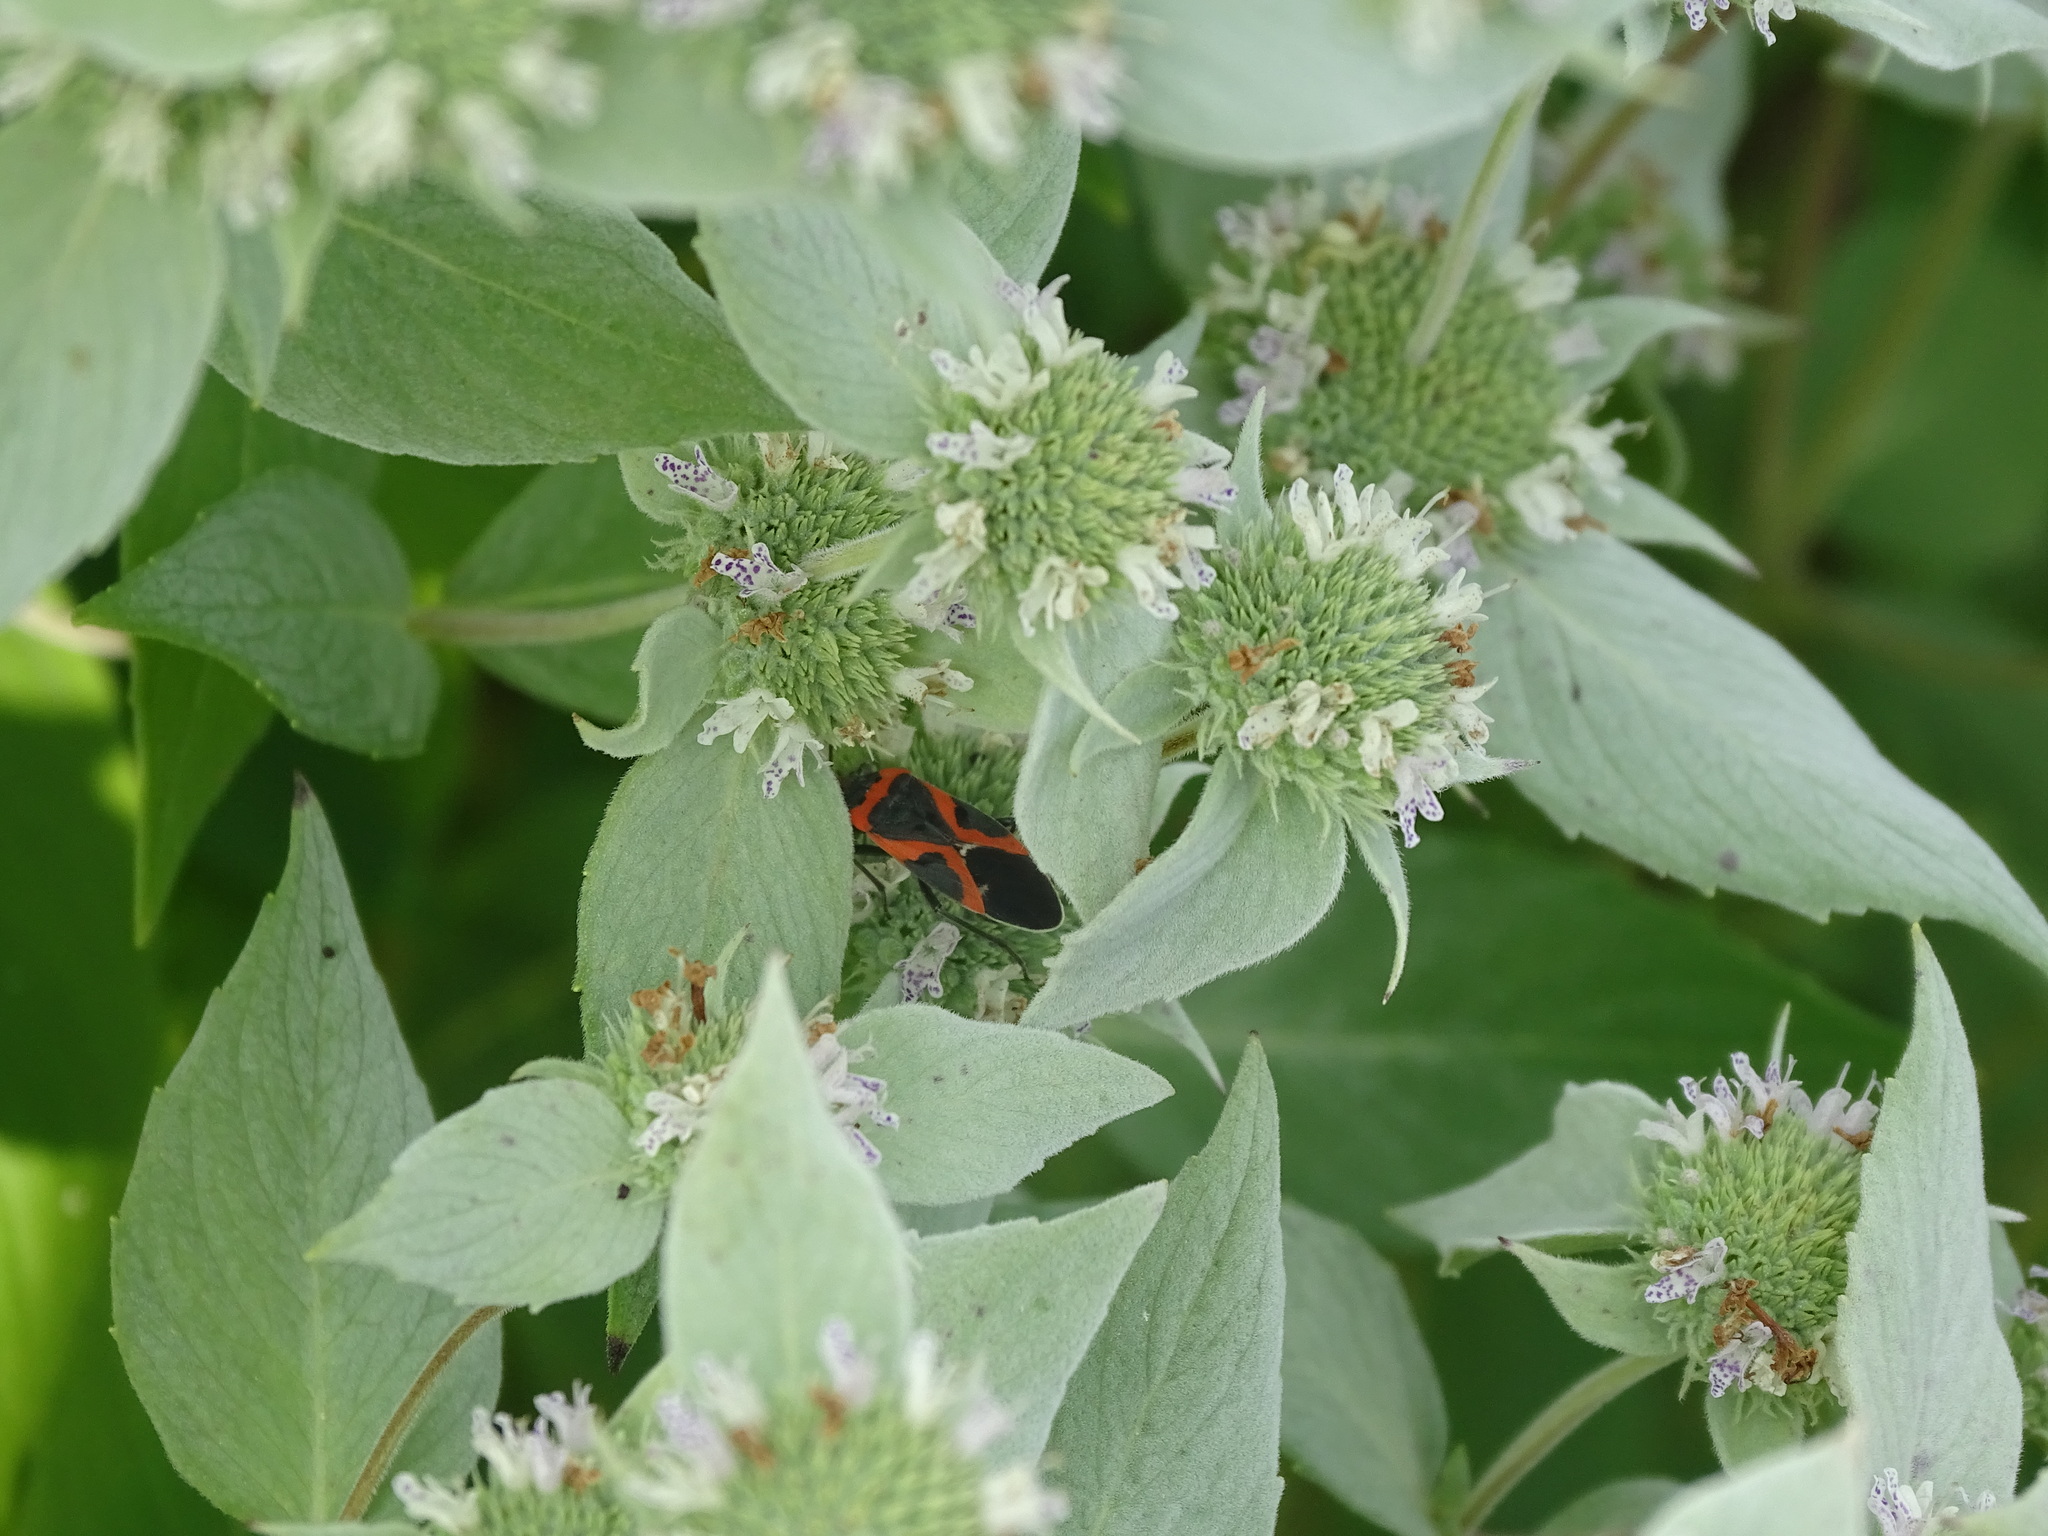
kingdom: Animalia
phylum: Arthropoda
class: Insecta
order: Hemiptera
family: Lygaeidae
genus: Lygaeus
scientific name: Lygaeus kalmii
